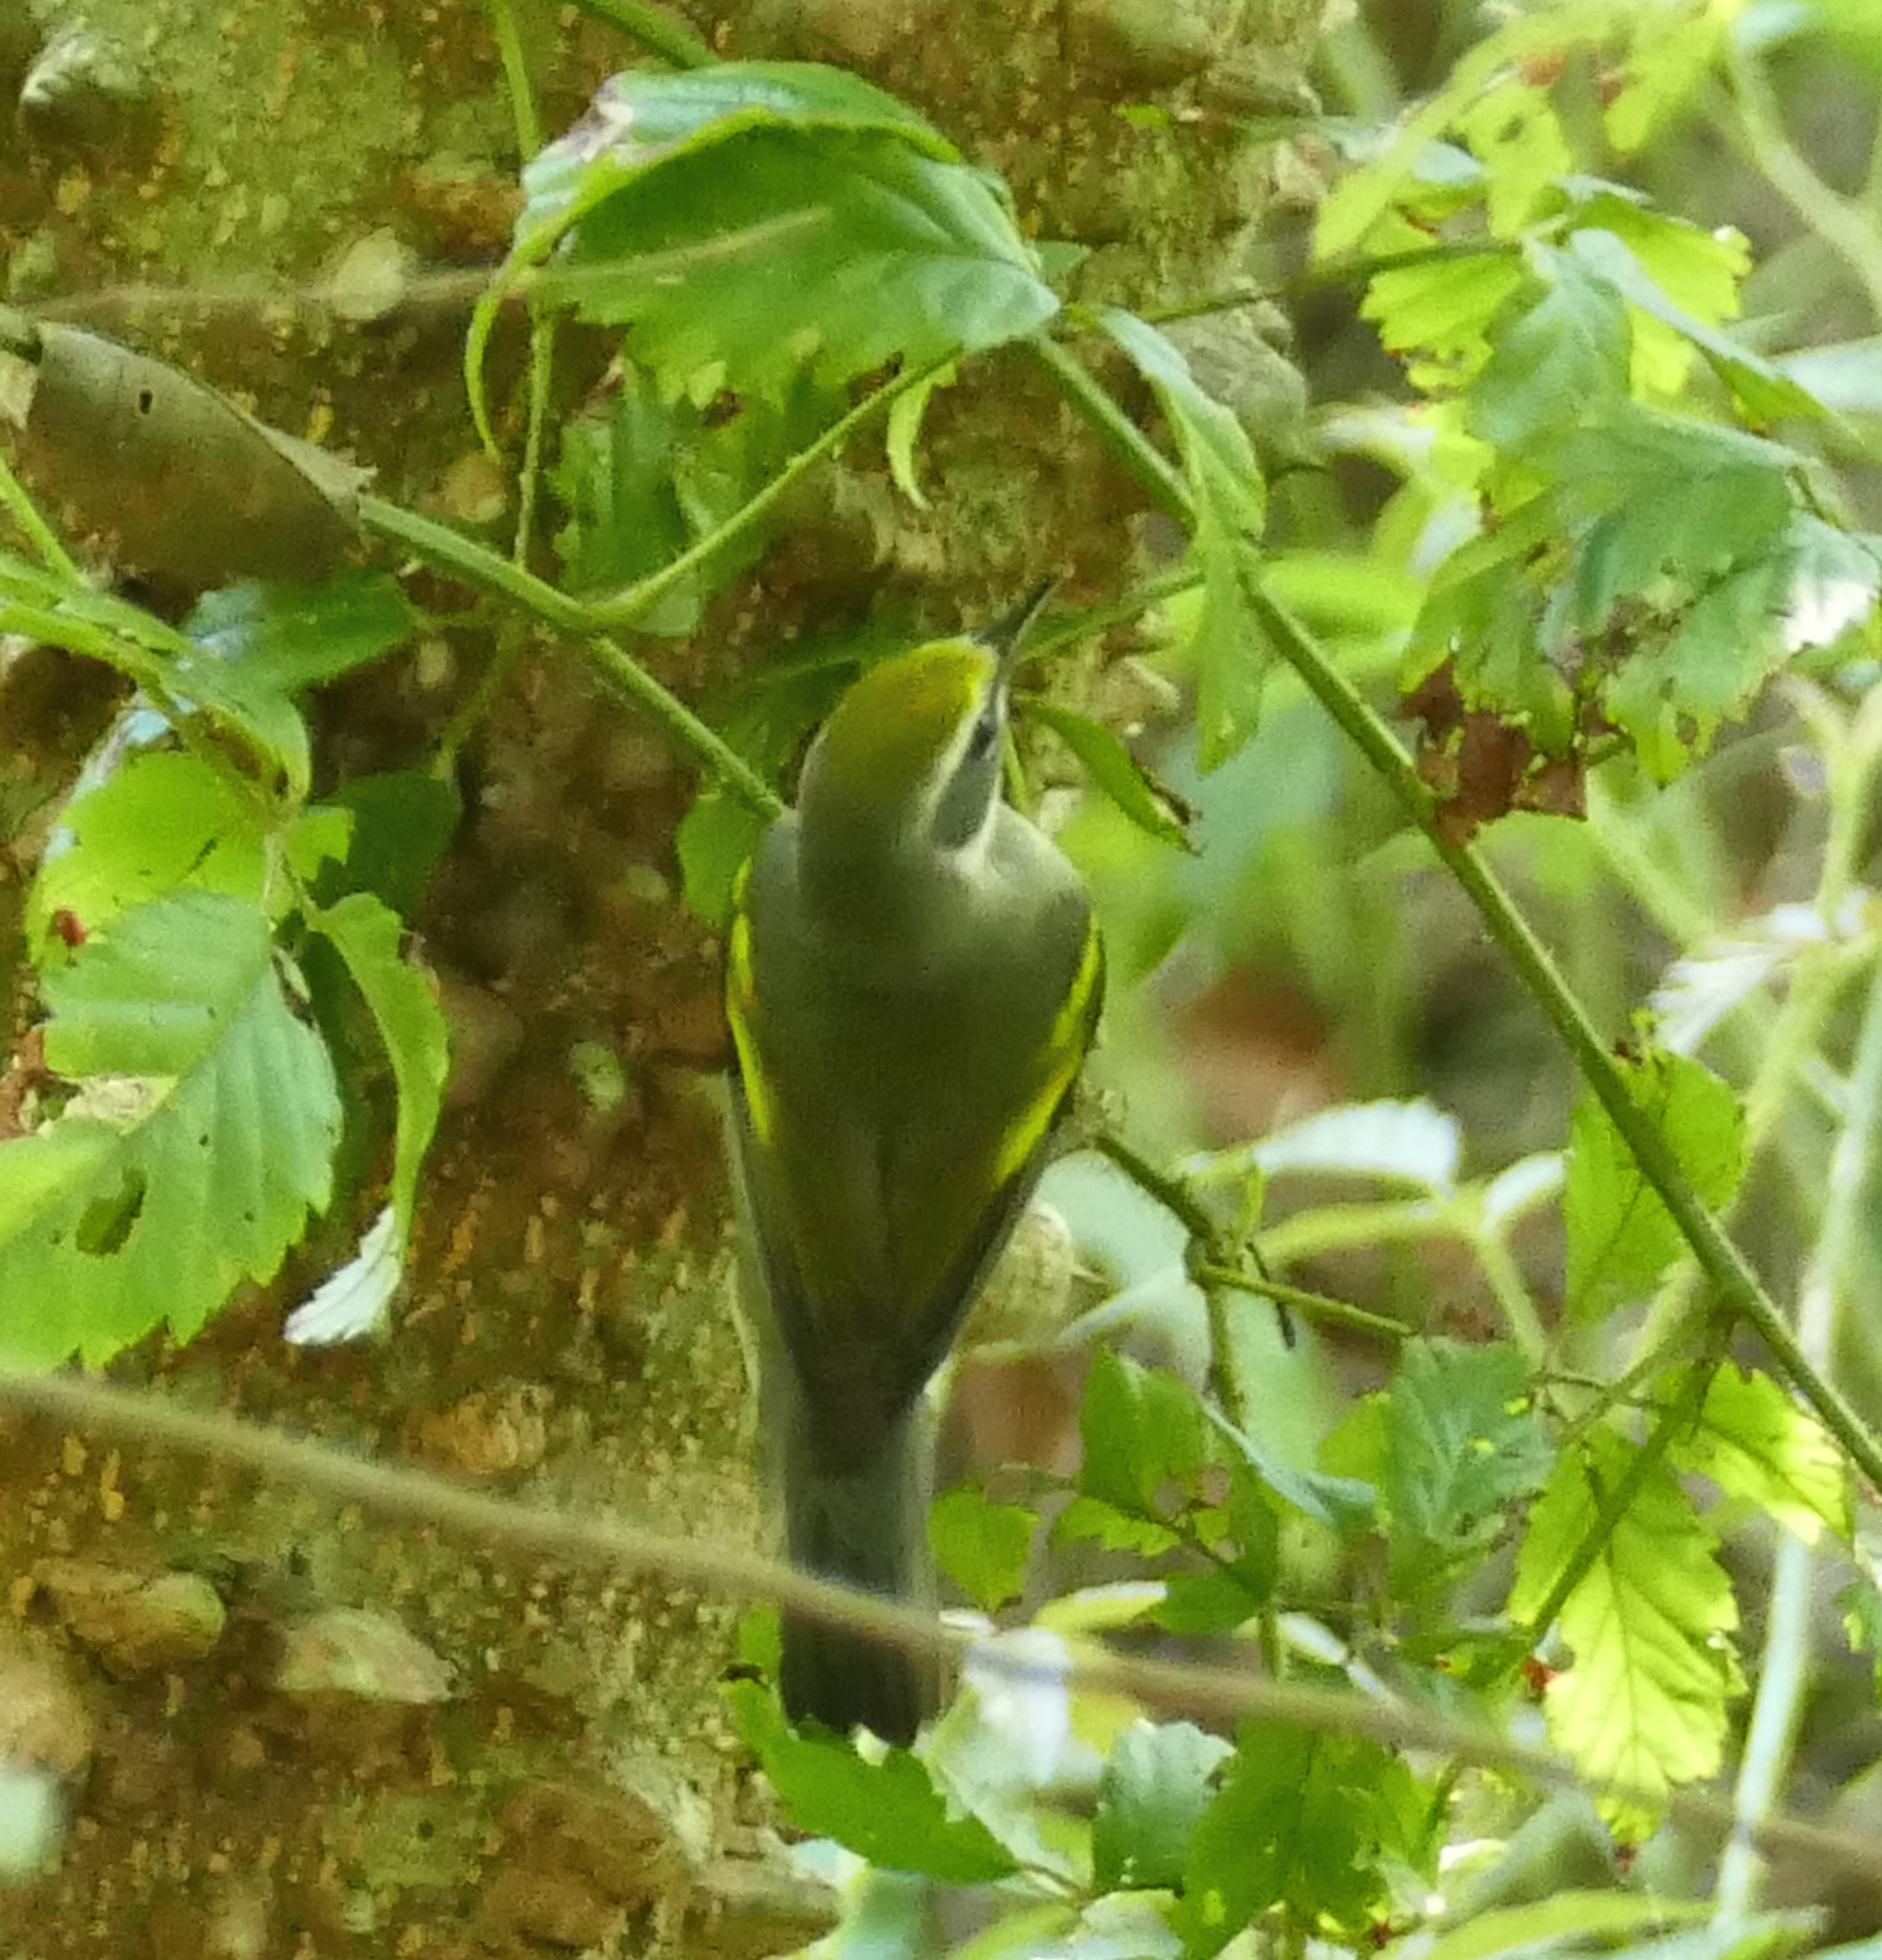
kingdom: Animalia
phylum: Chordata
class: Aves
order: Passeriformes
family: Parulidae
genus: Vermivora
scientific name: Vermivora chrysoptera
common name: Golden-winged warbler
